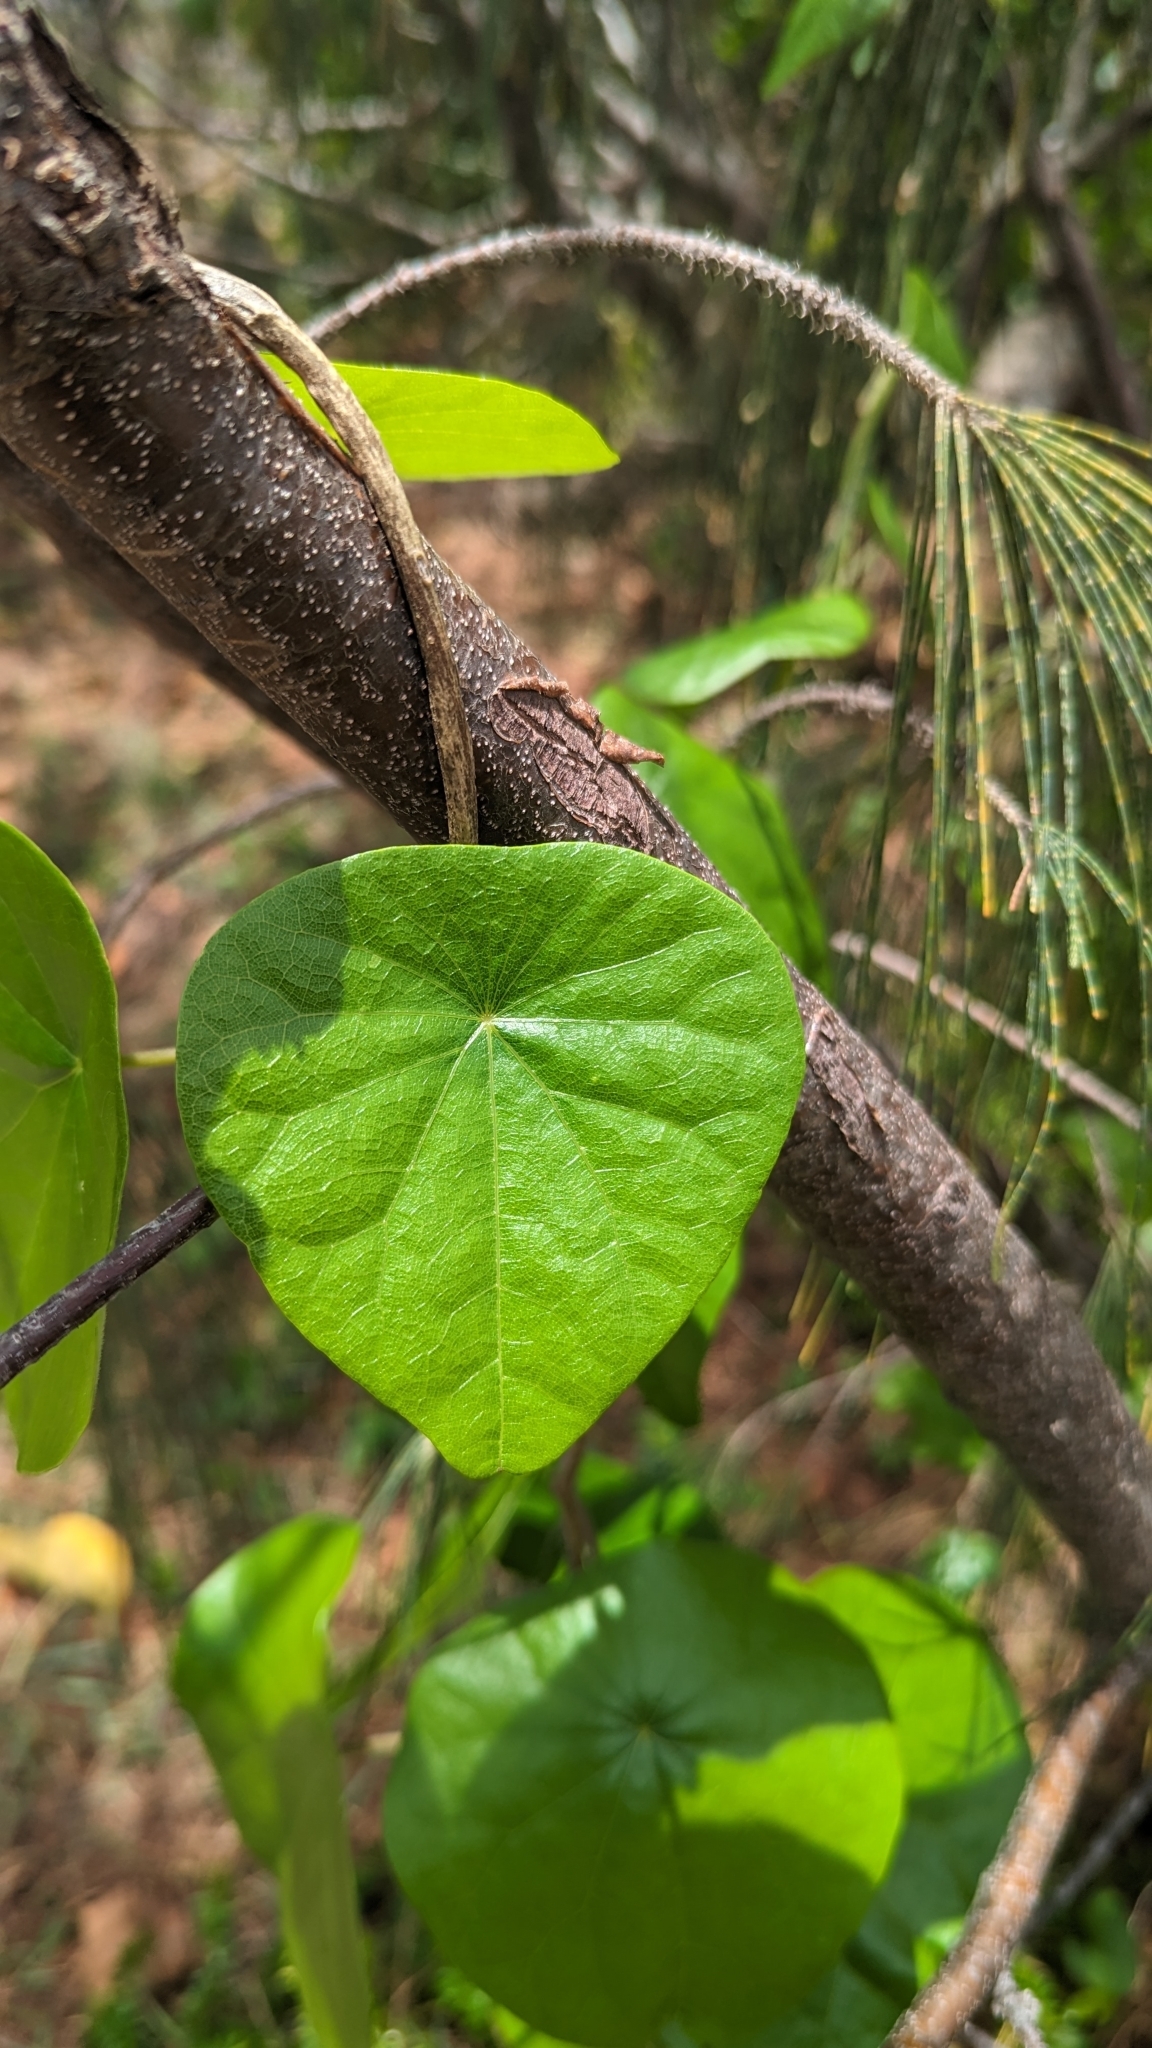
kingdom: Plantae
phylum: Tracheophyta
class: Magnoliopsida
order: Ranunculales
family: Menispermaceae
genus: Stephania
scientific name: Stephania japonica
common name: Snake vine
